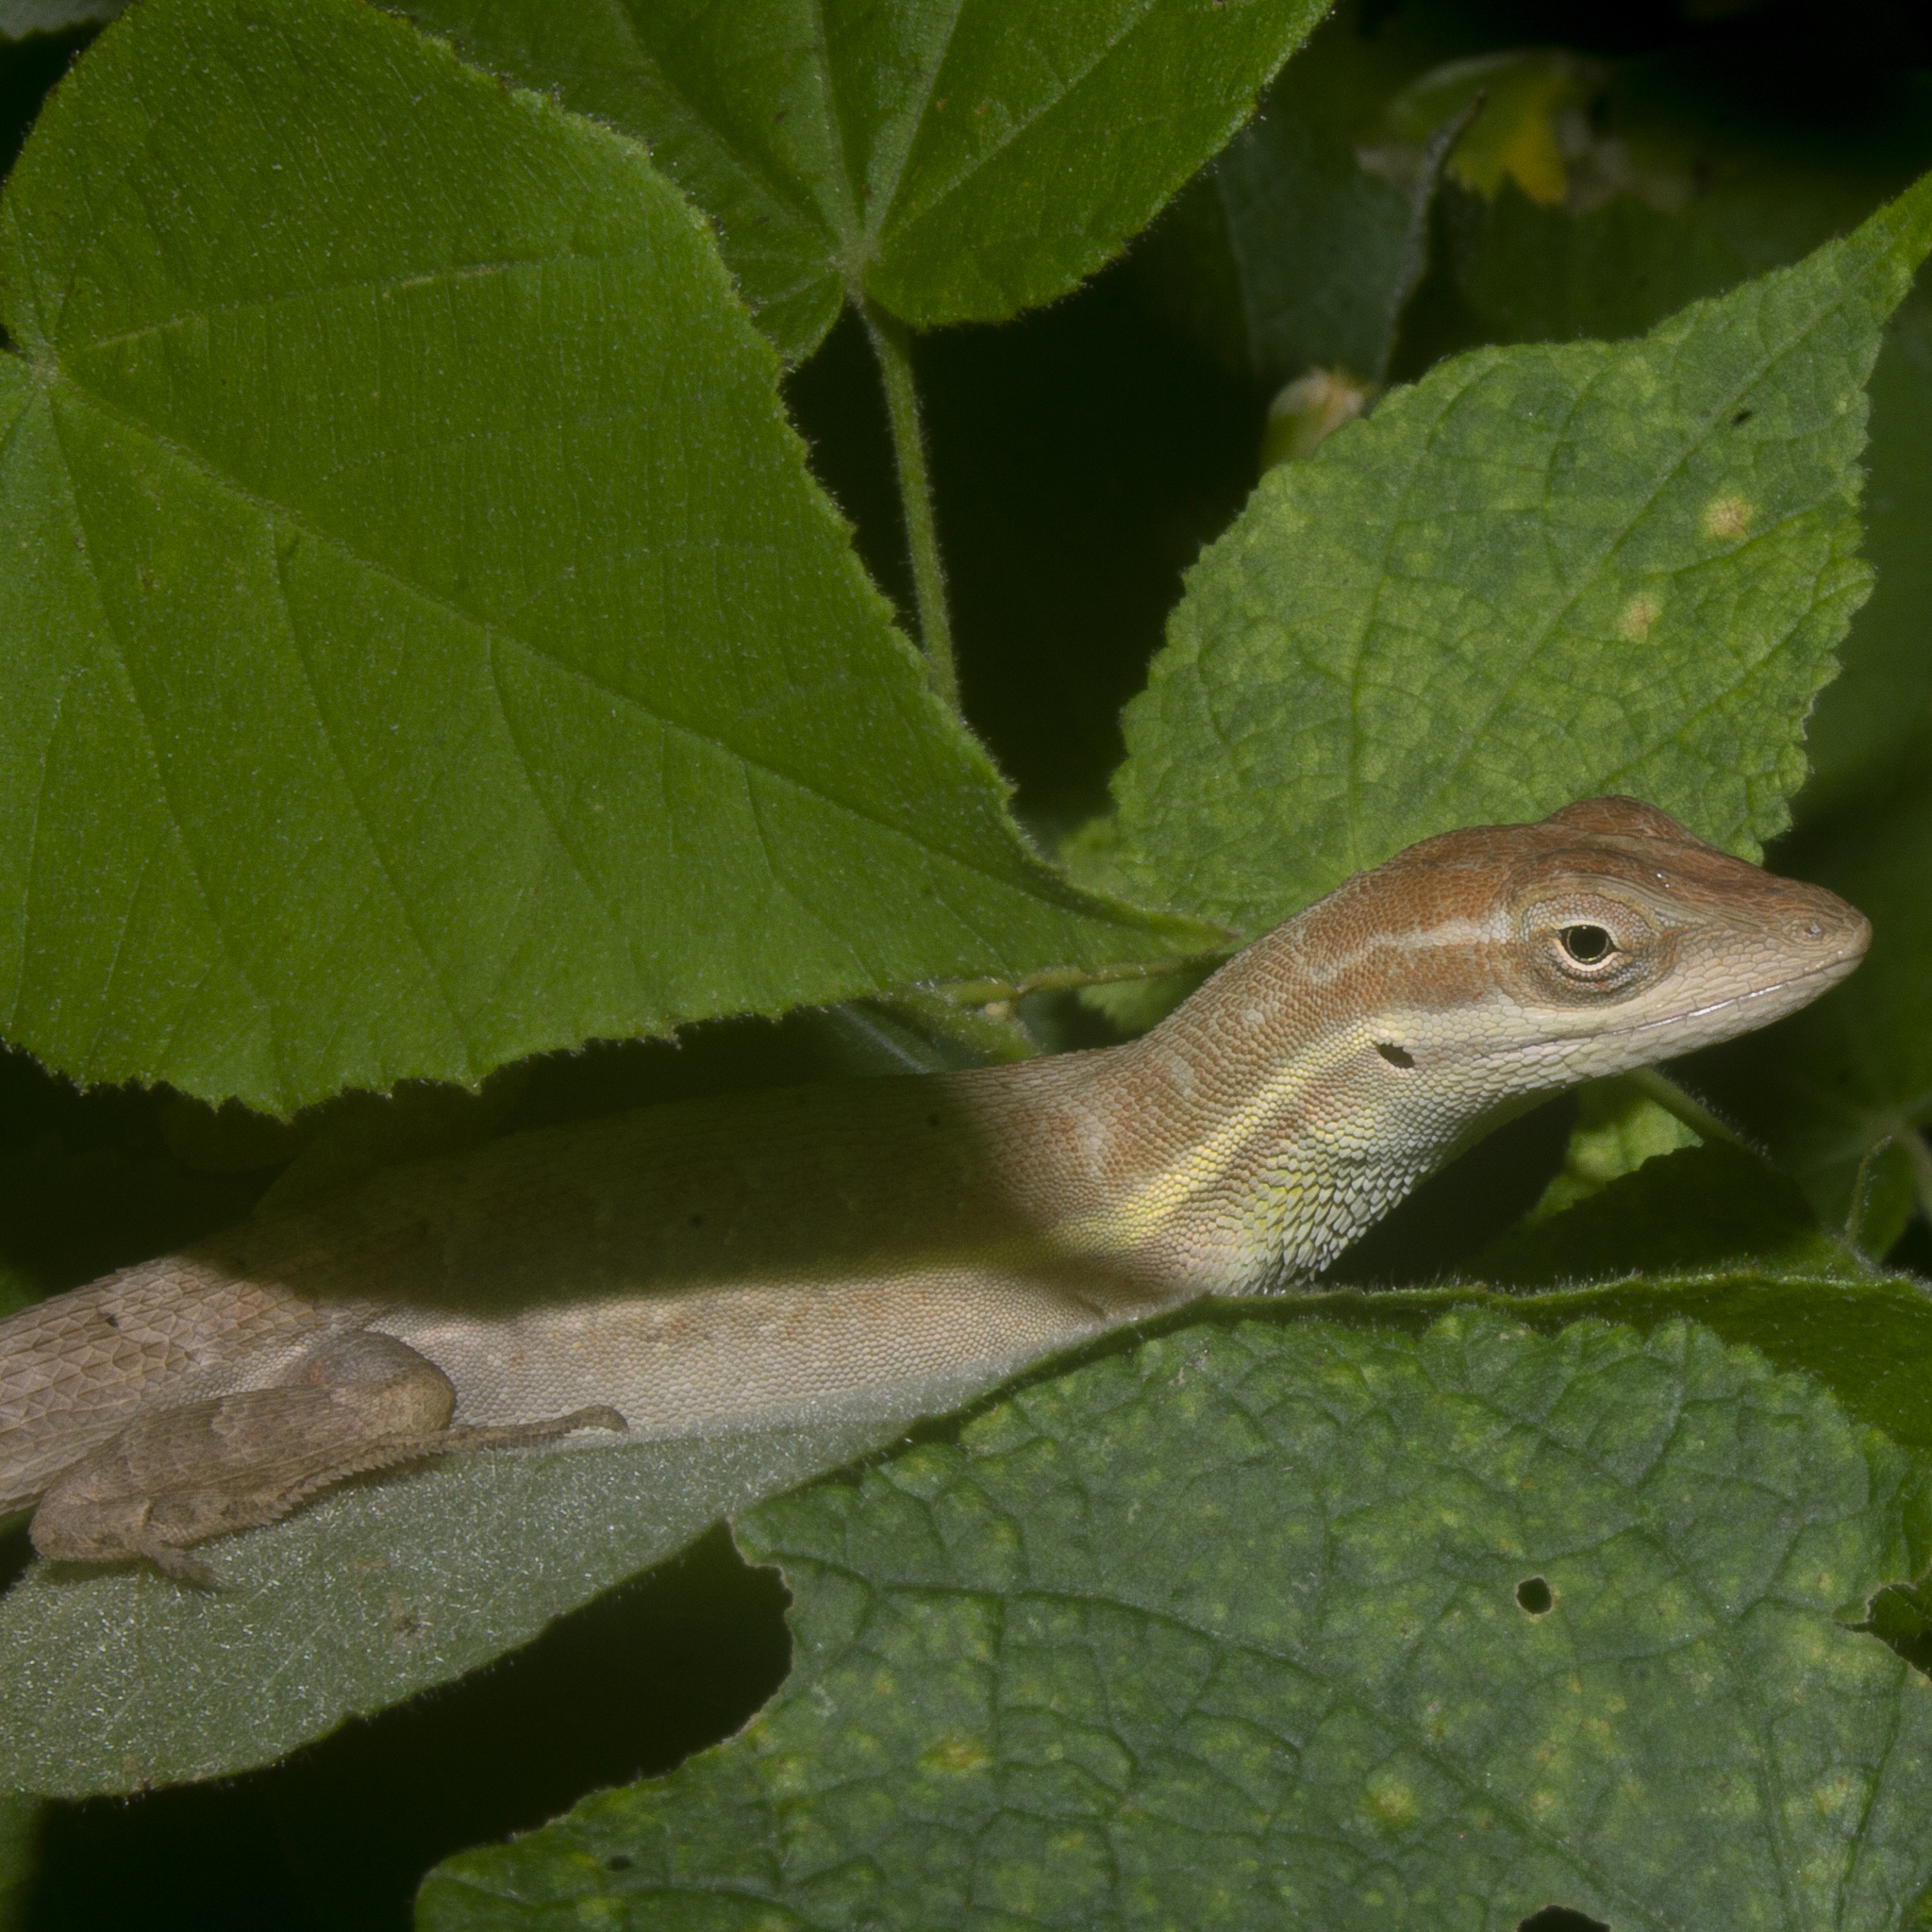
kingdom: Animalia
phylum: Chordata
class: Squamata
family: Dactyloidae
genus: Anolis
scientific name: Anolis auratus
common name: Grass anole
